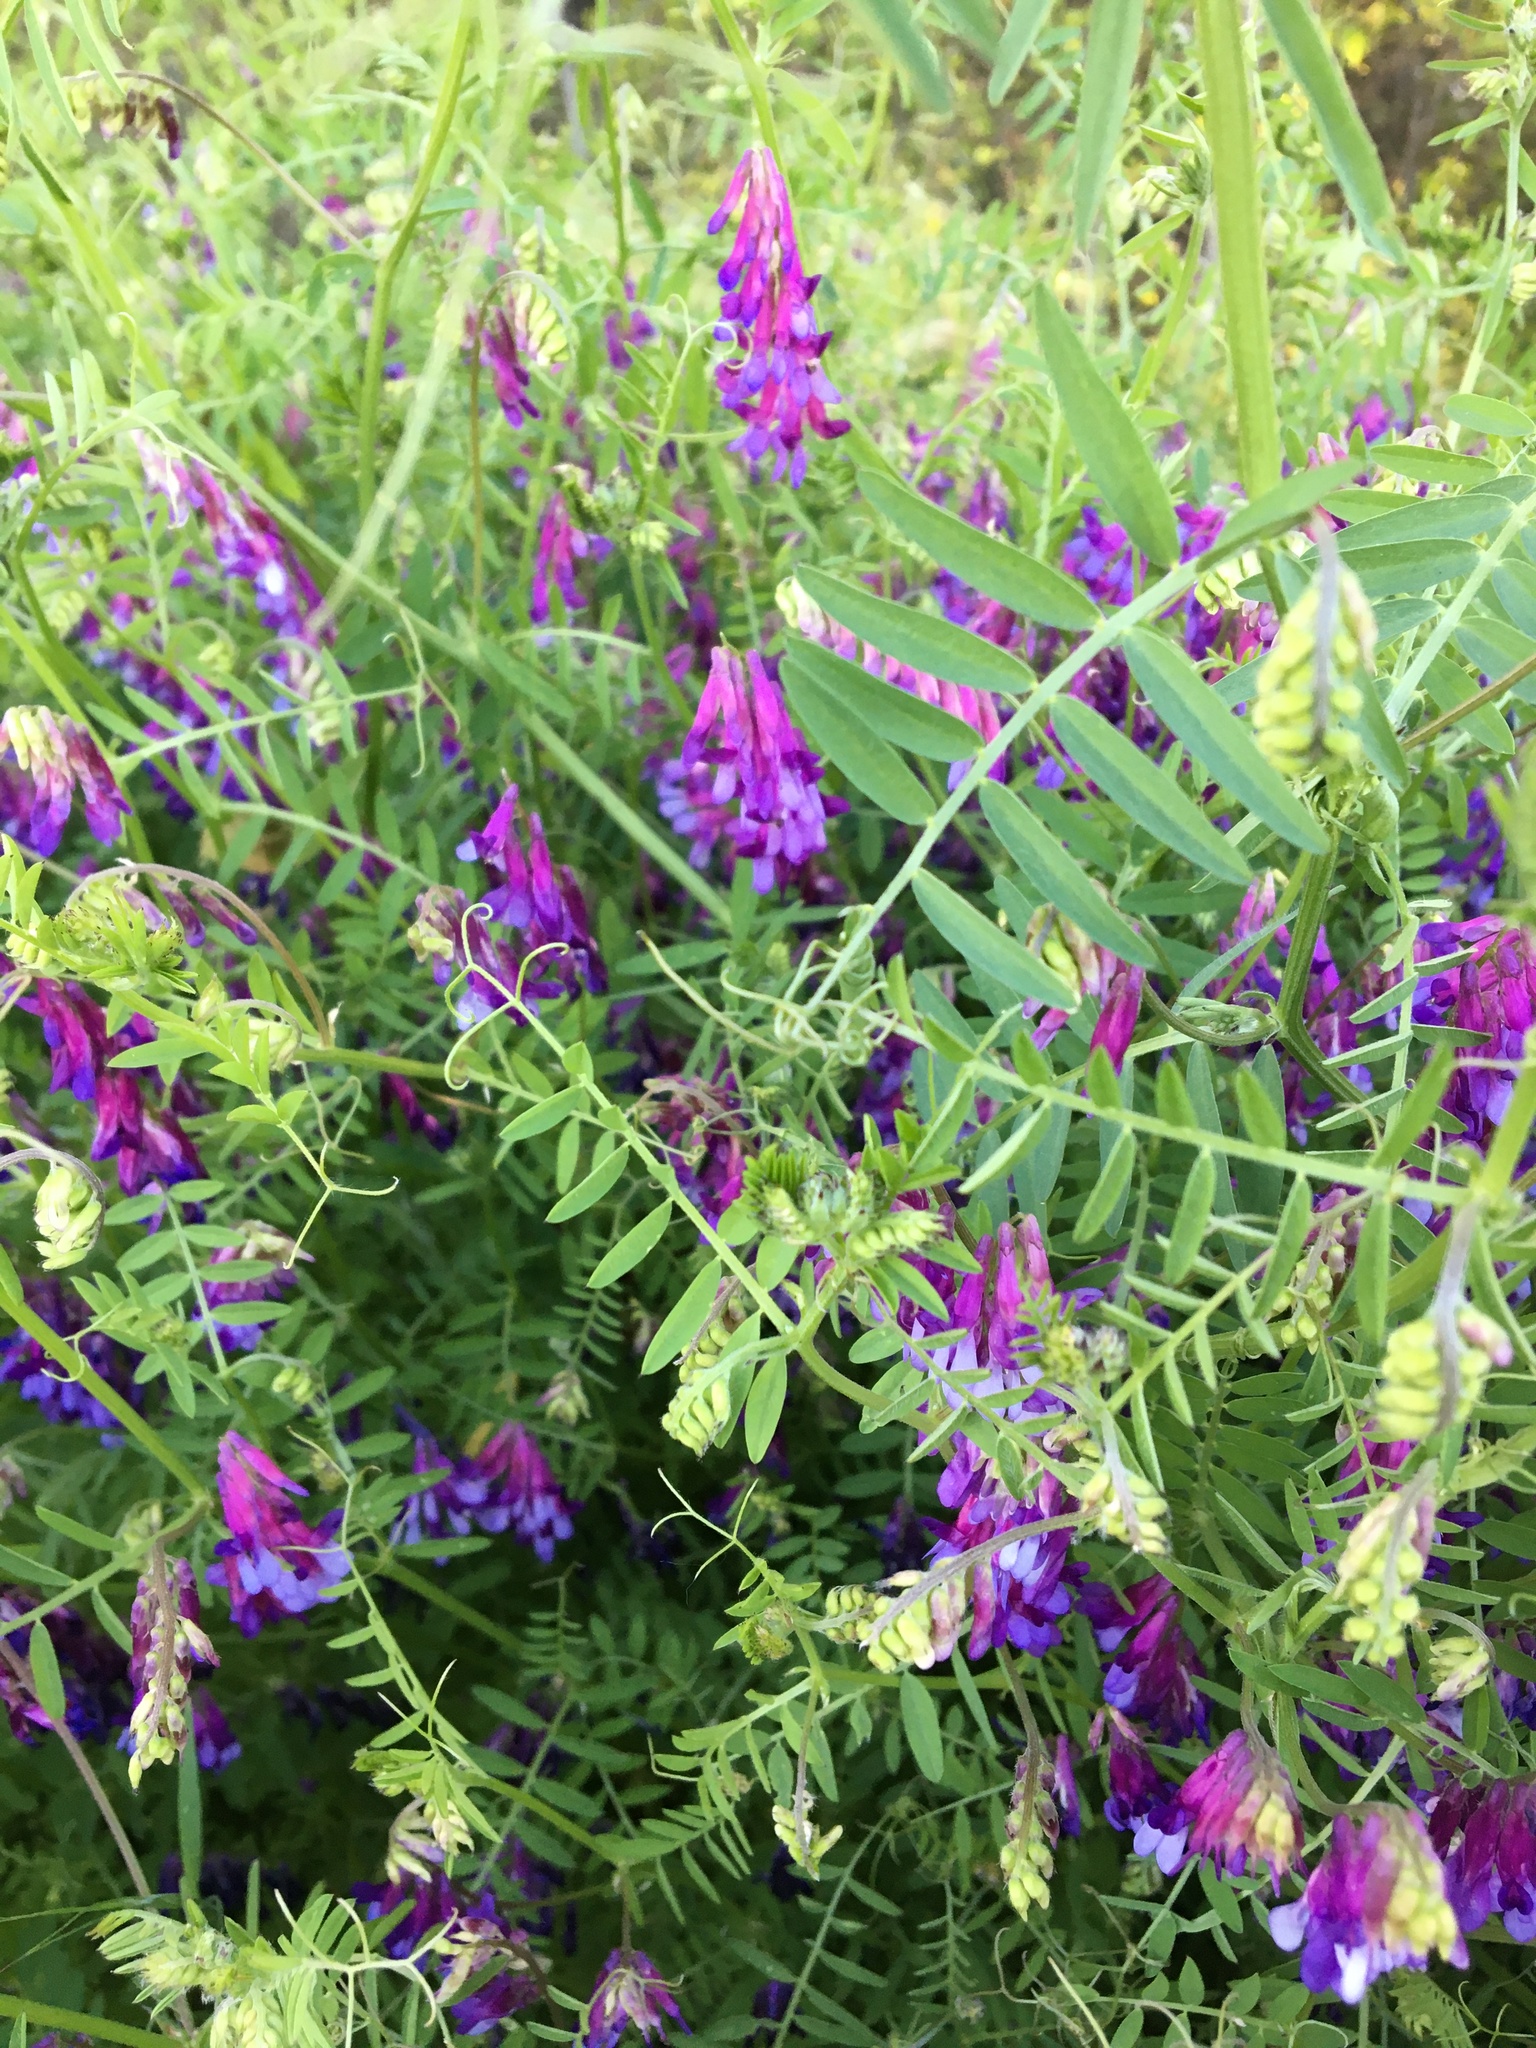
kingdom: Plantae
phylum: Tracheophyta
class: Magnoliopsida
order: Fabales
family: Fabaceae
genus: Vicia
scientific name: Vicia villosa
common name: Fodder vetch
